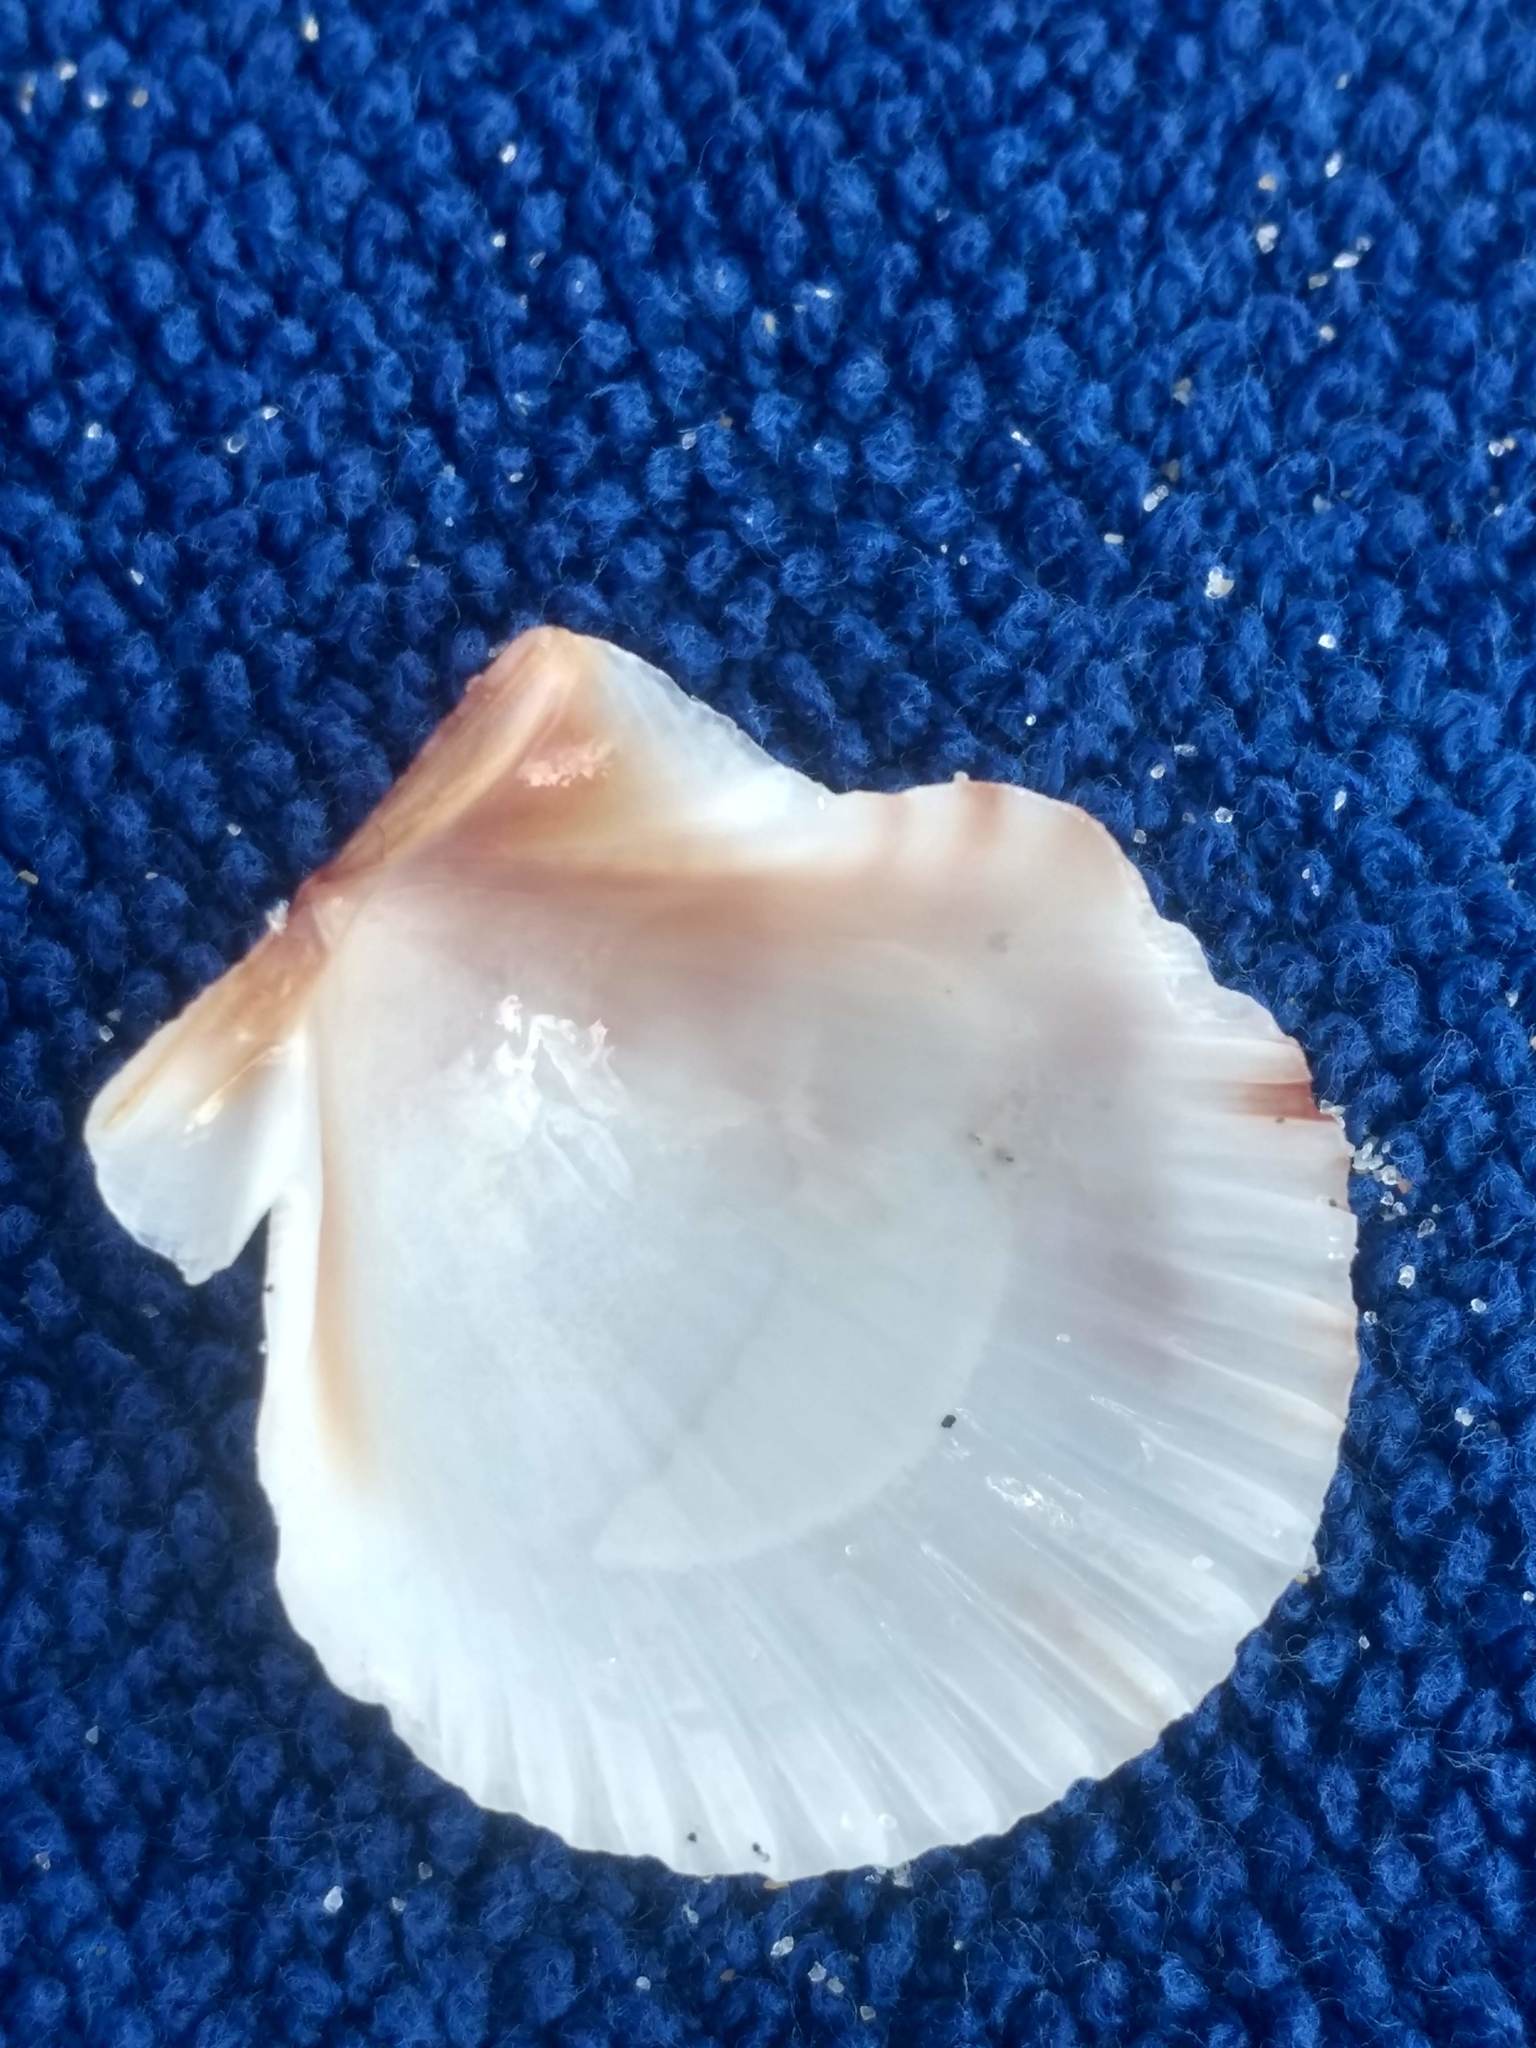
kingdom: Animalia
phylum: Mollusca
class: Bivalvia
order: Pectinida
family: Pectinidae
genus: Argopecten
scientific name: Argopecten ventricosus
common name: Catarina scallop
